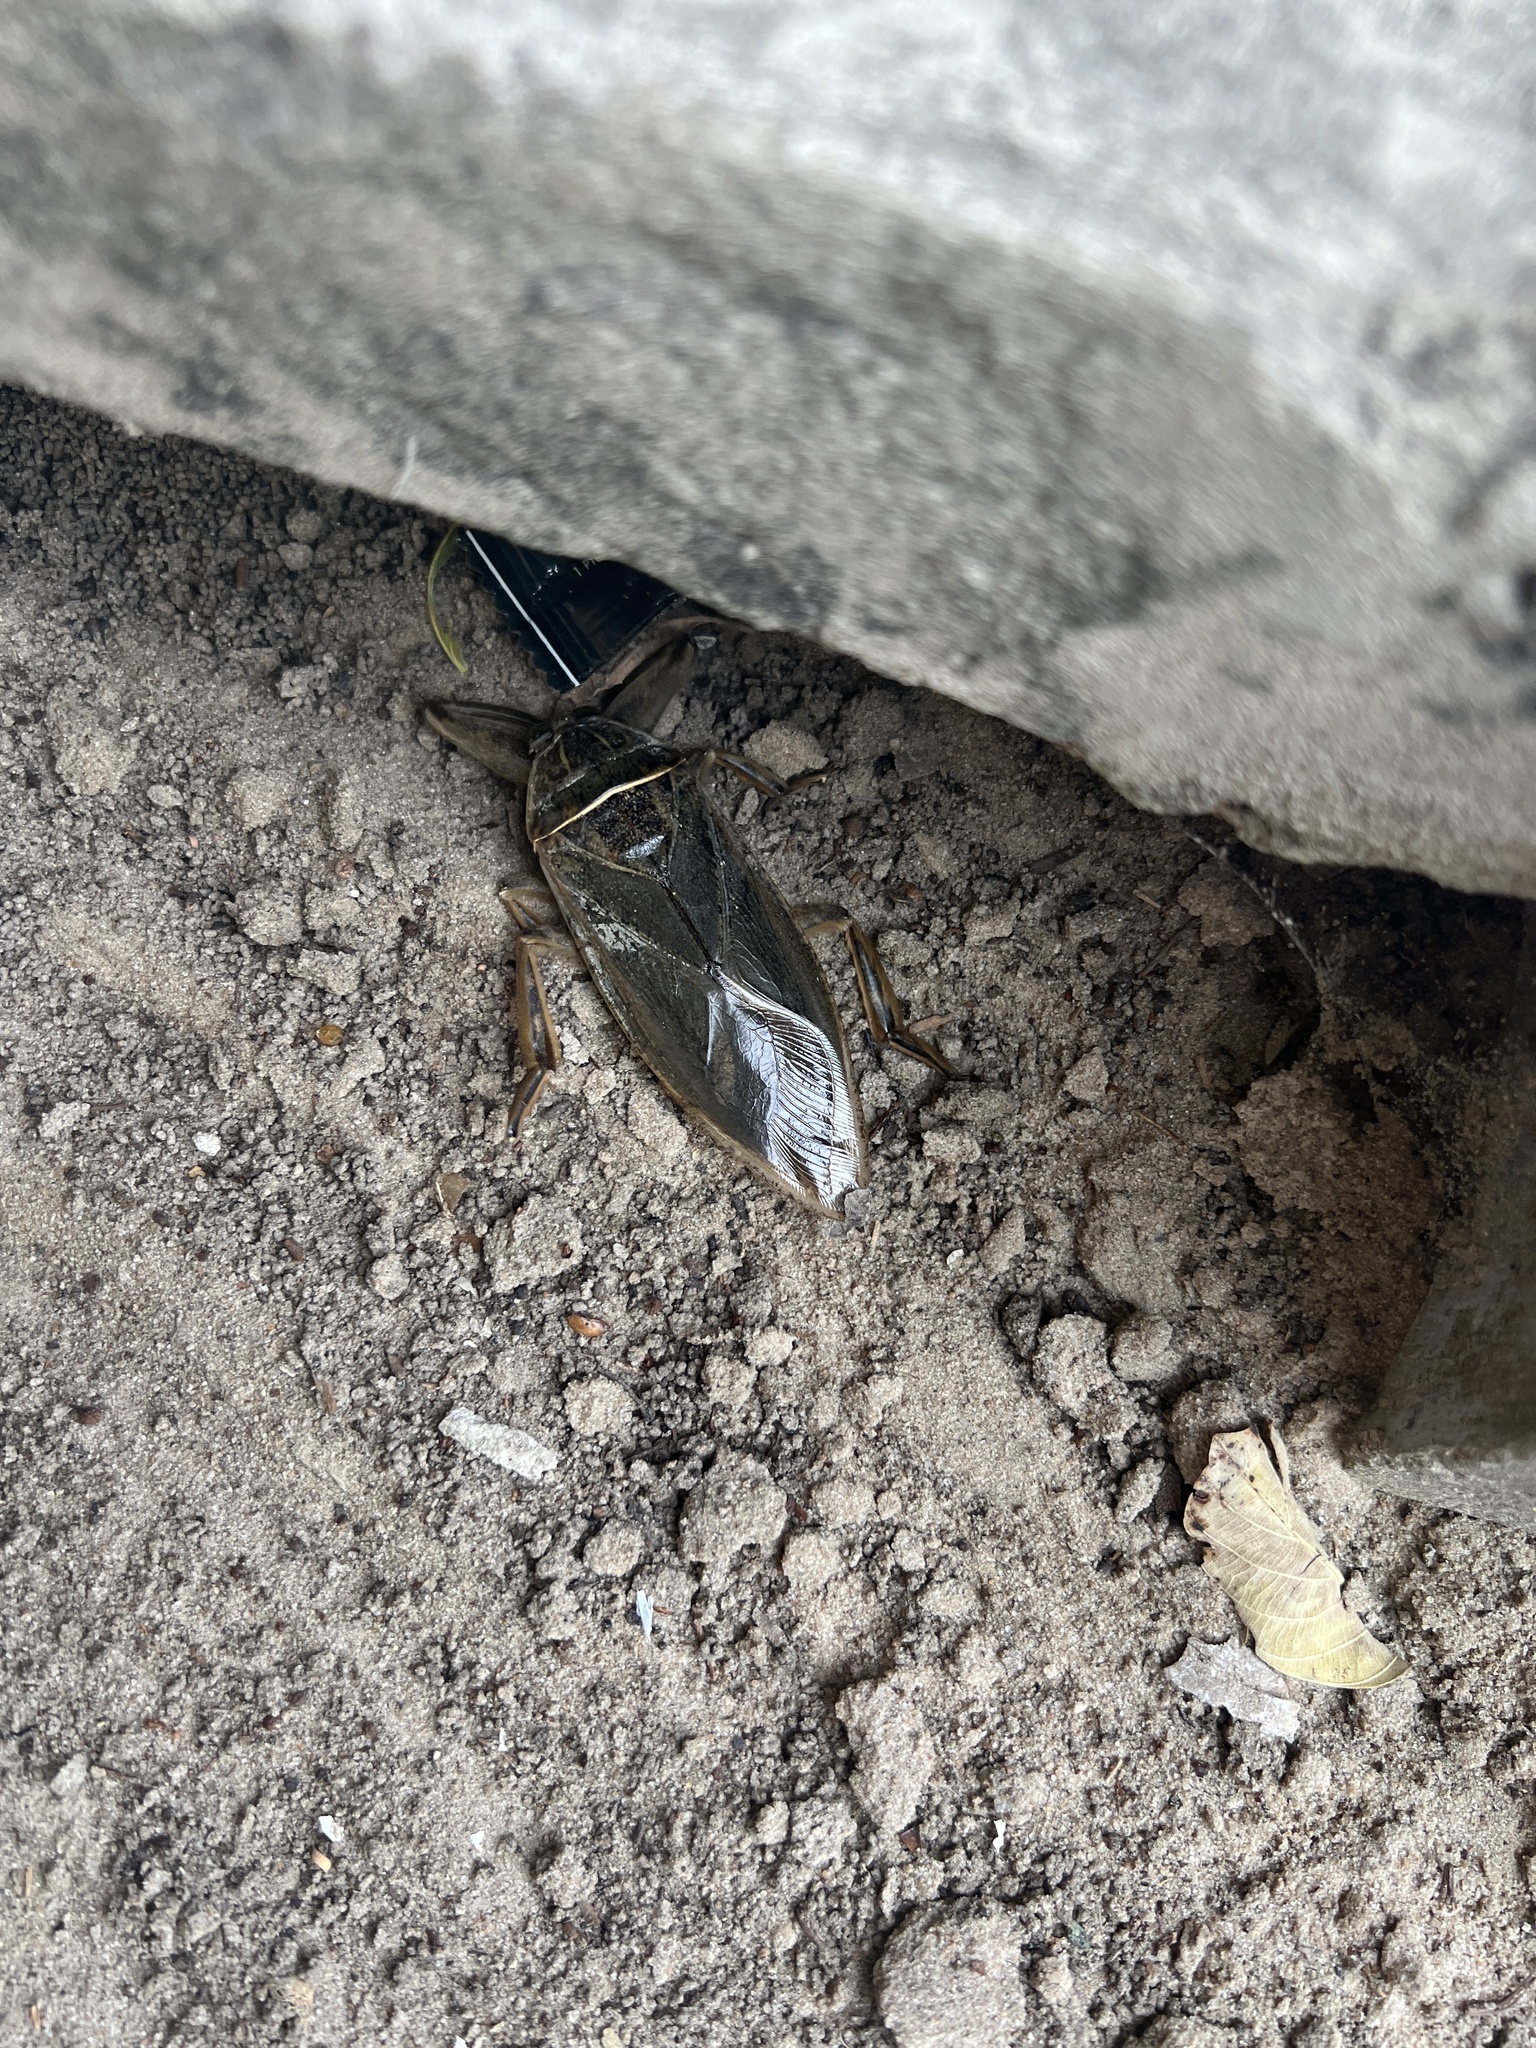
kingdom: Animalia
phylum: Arthropoda
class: Insecta
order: Hemiptera
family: Belostomatidae
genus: Lethocerus
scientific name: Lethocerus cordofanus
